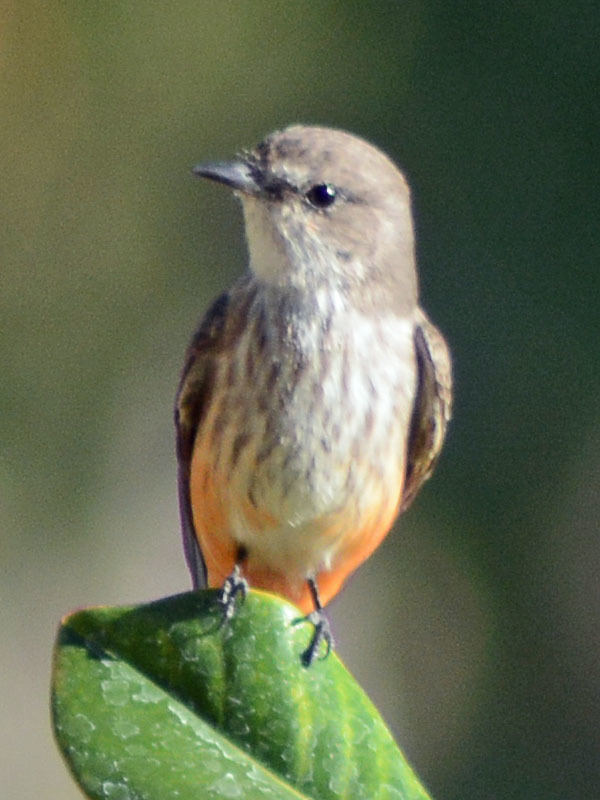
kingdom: Animalia
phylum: Chordata
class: Aves
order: Passeriformes
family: Tyrannidae
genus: Pyrocephalus
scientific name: Pyrocephalus rubinus
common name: Vermilion flycatcher
